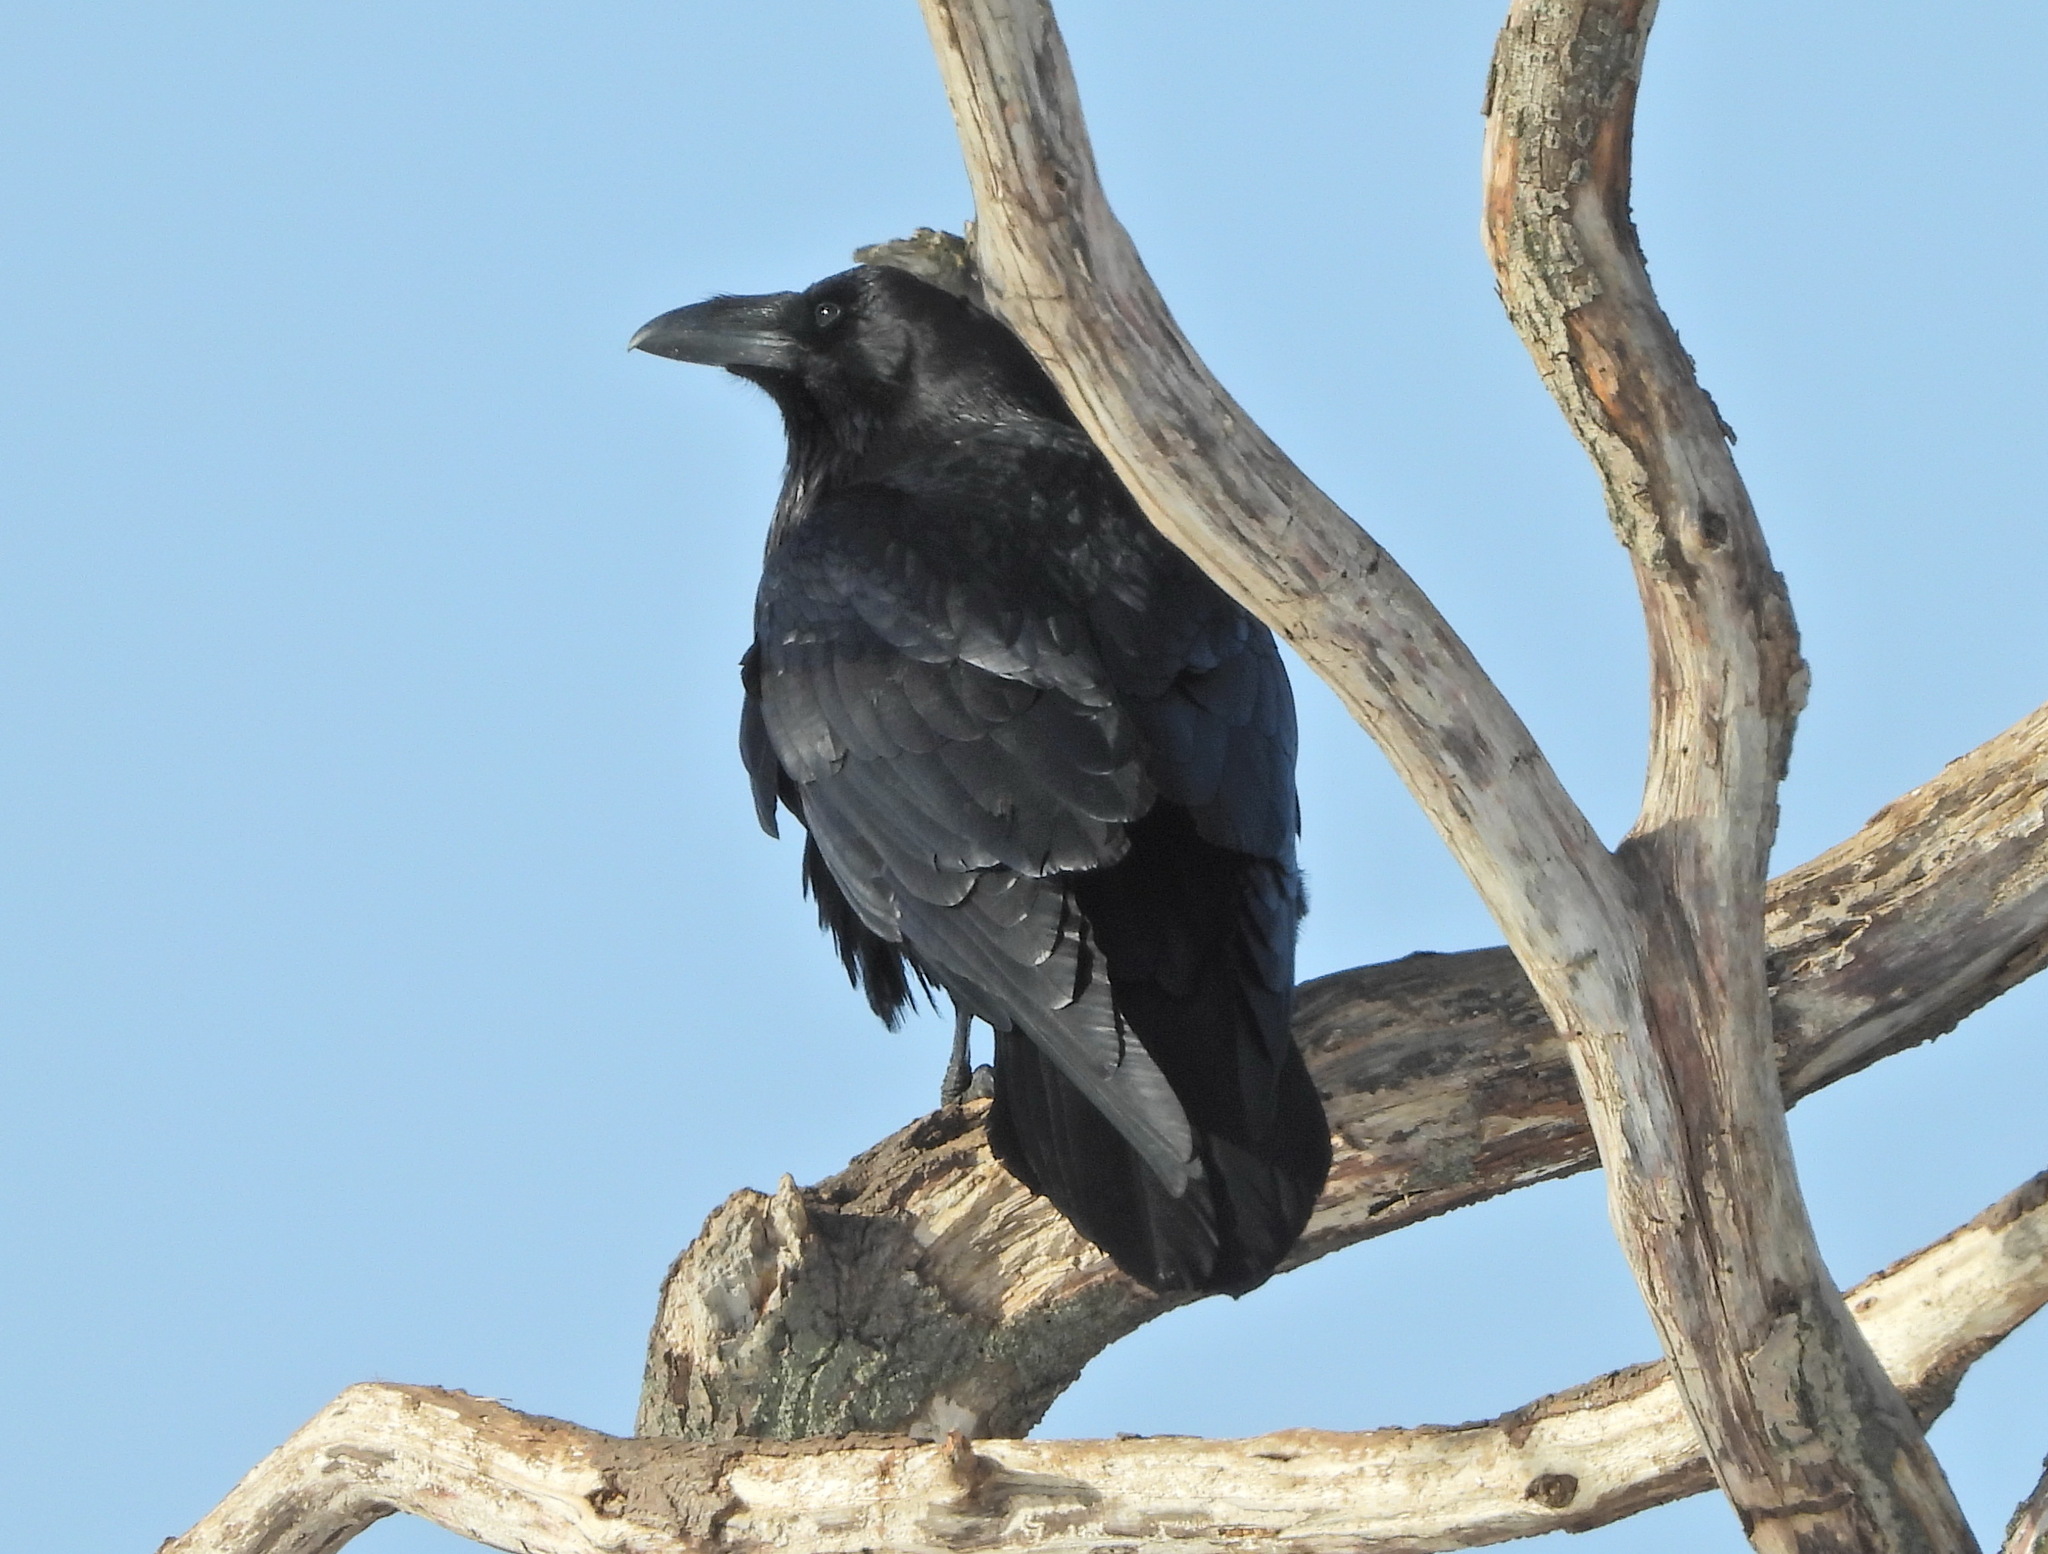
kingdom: Animalia
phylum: Chordata
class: Aves
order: Passeriformes
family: Corvidae
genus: Corvus
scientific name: Corvus corax
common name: Common raven
